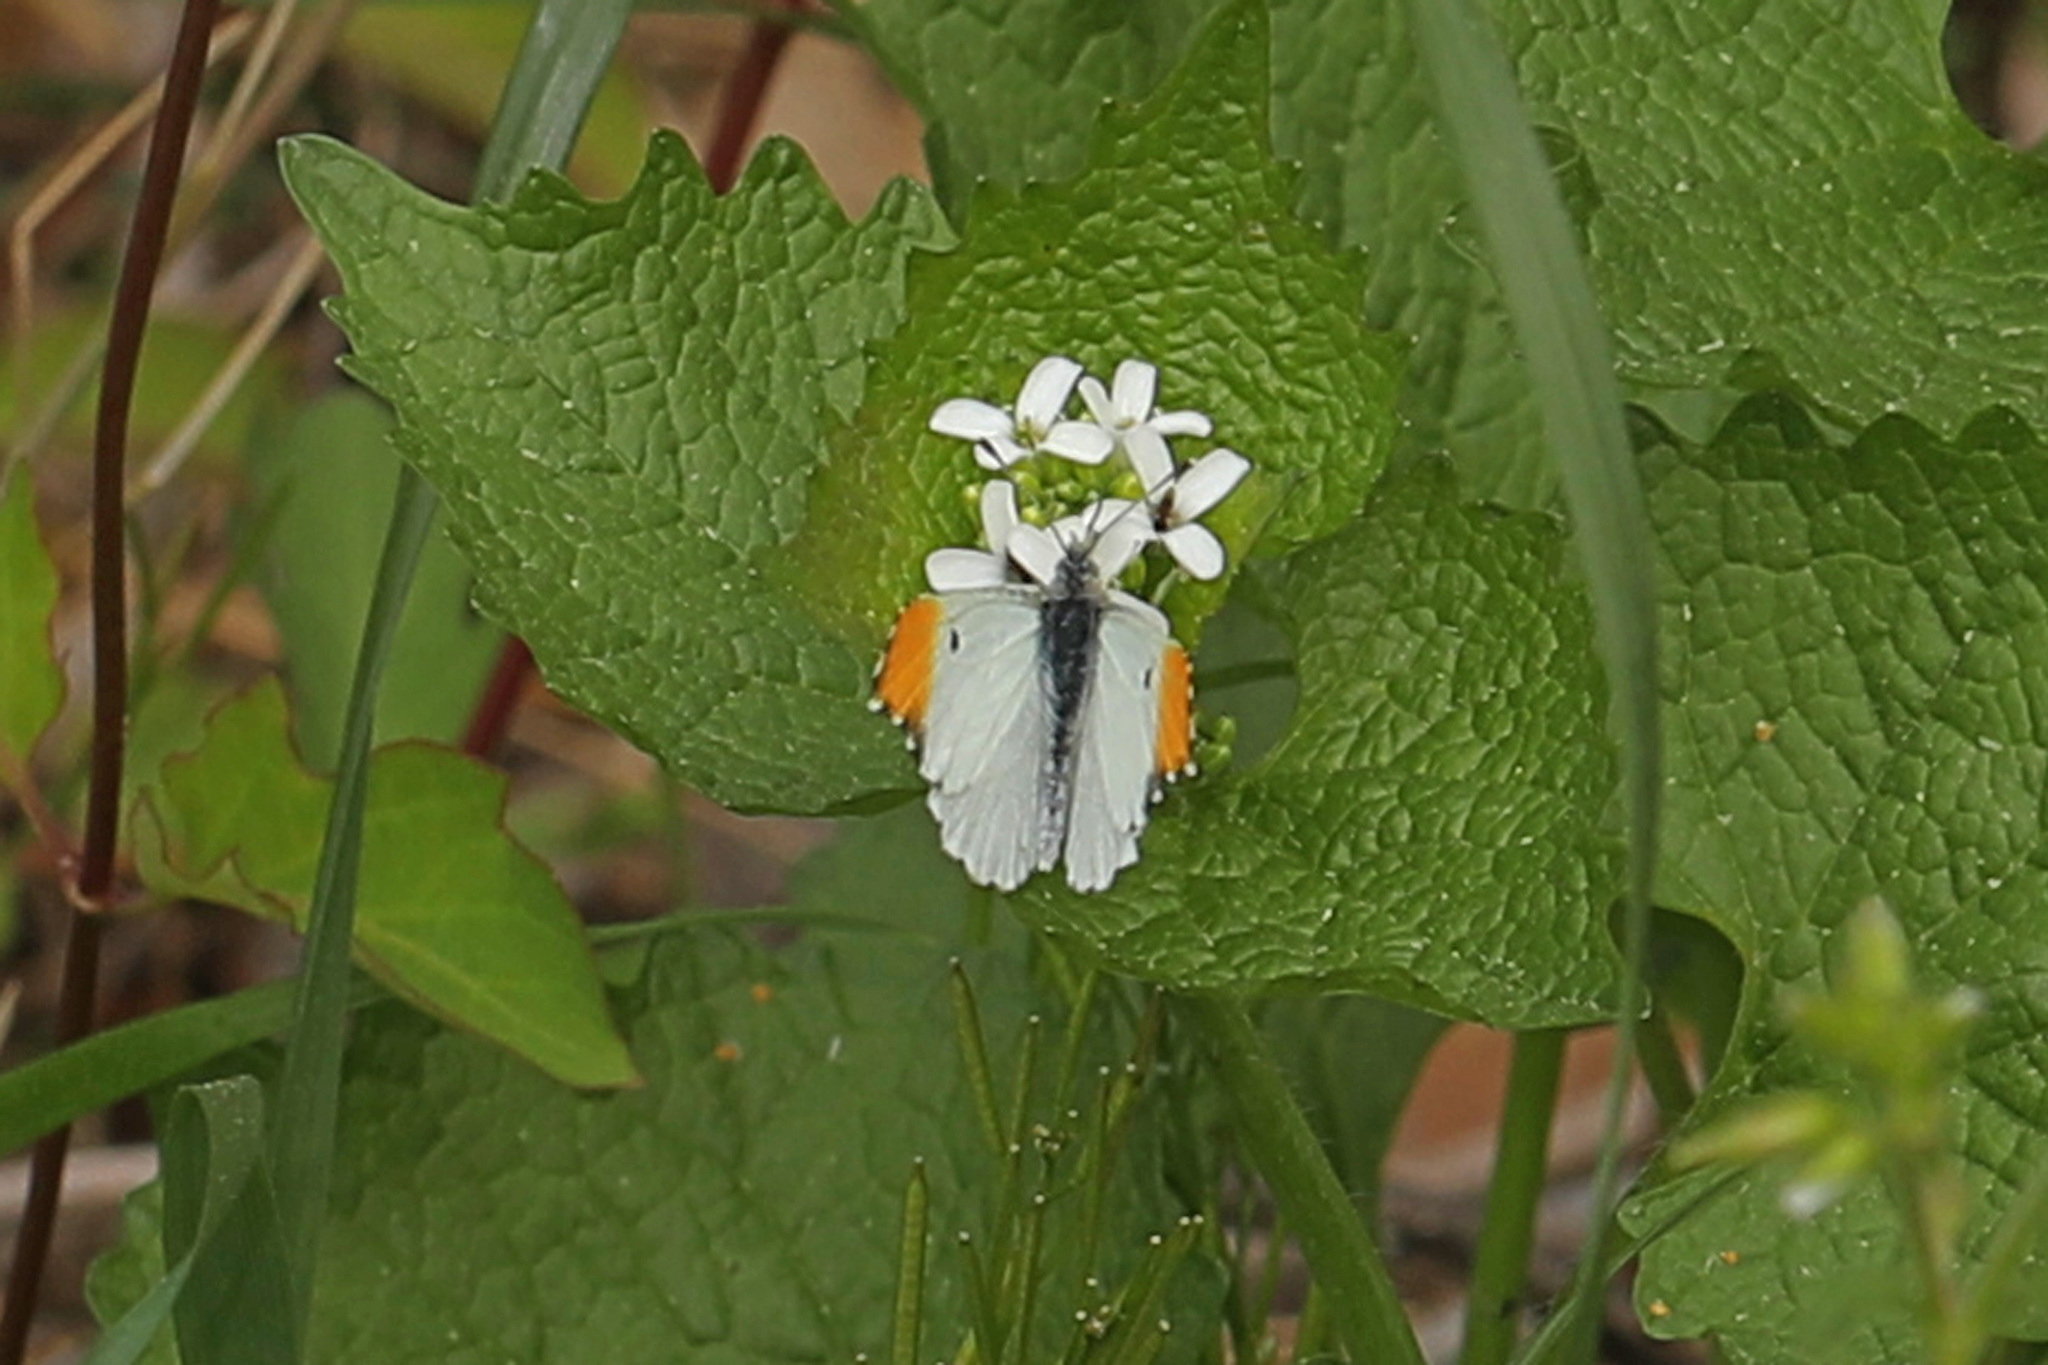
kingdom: Animalia
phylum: Arthropoda
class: Insecta
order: Lepidoptera
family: Pieridae
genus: Anthocharis
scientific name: Anthocharis midea
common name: Falcate orangetip
